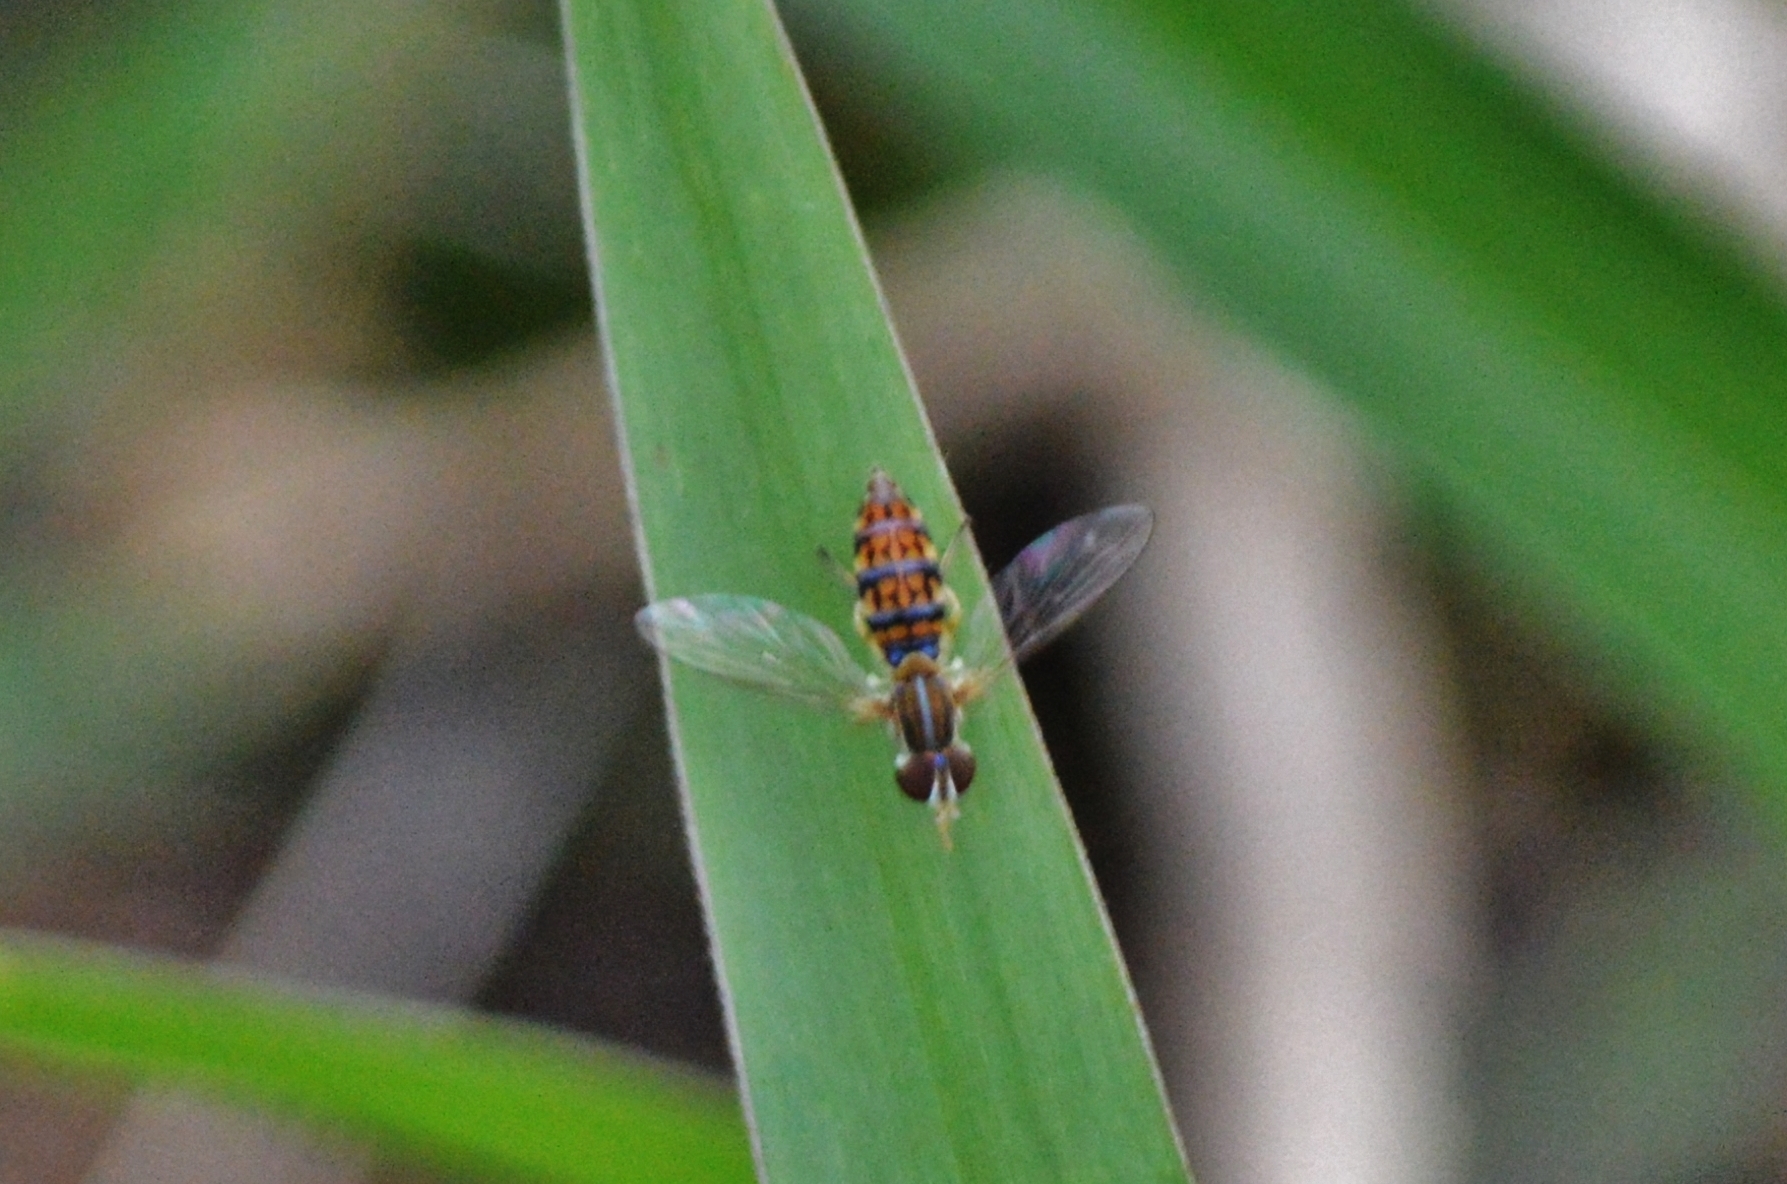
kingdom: Animalia
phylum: Arthropoda
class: Insecta
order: Diptera
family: Syrphidae
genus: Toxomerus
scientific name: Toxomerus
